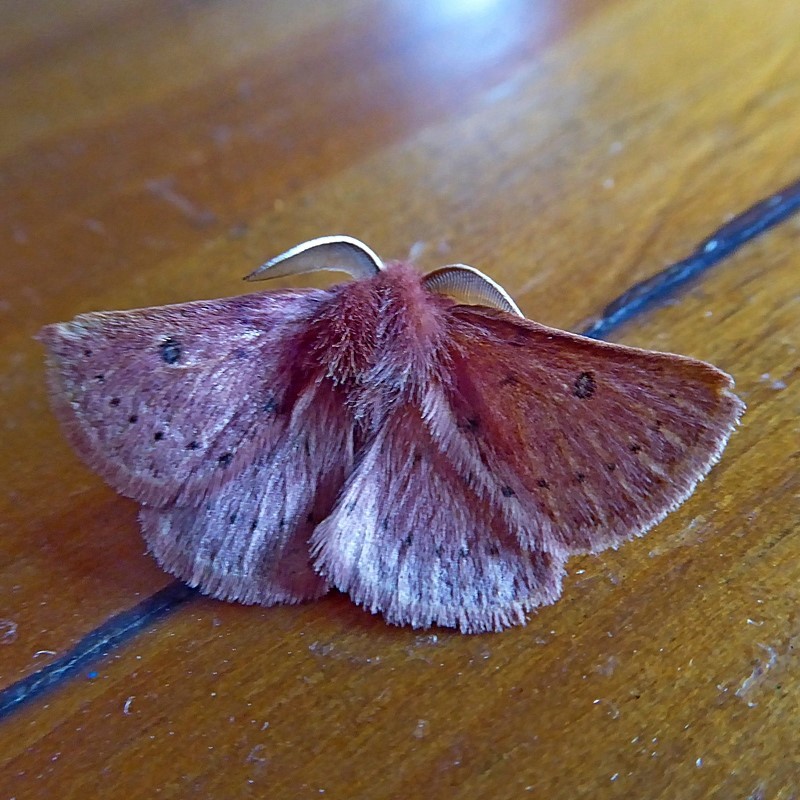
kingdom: Animalia
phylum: Arthropoda
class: Insecta
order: Lepidoptera
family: Anthelidae
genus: Anthela
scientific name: Anthela ferruginosa
